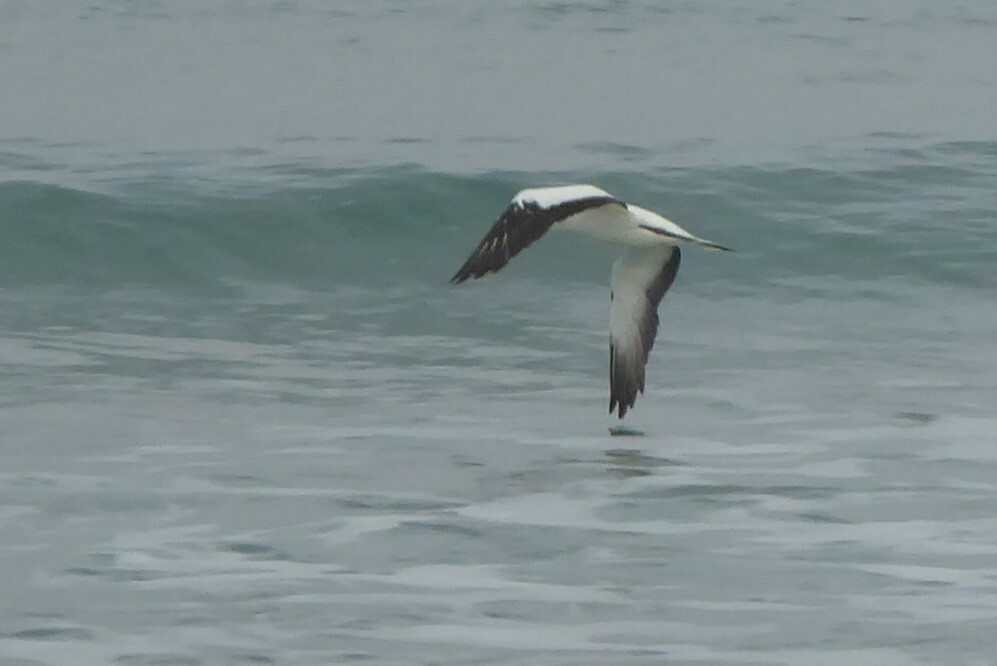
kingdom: Animalia
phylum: Chordata
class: Aves
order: Suliformes
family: Sulidae
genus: Morus
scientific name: Morus serrator
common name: Australasian gannet
